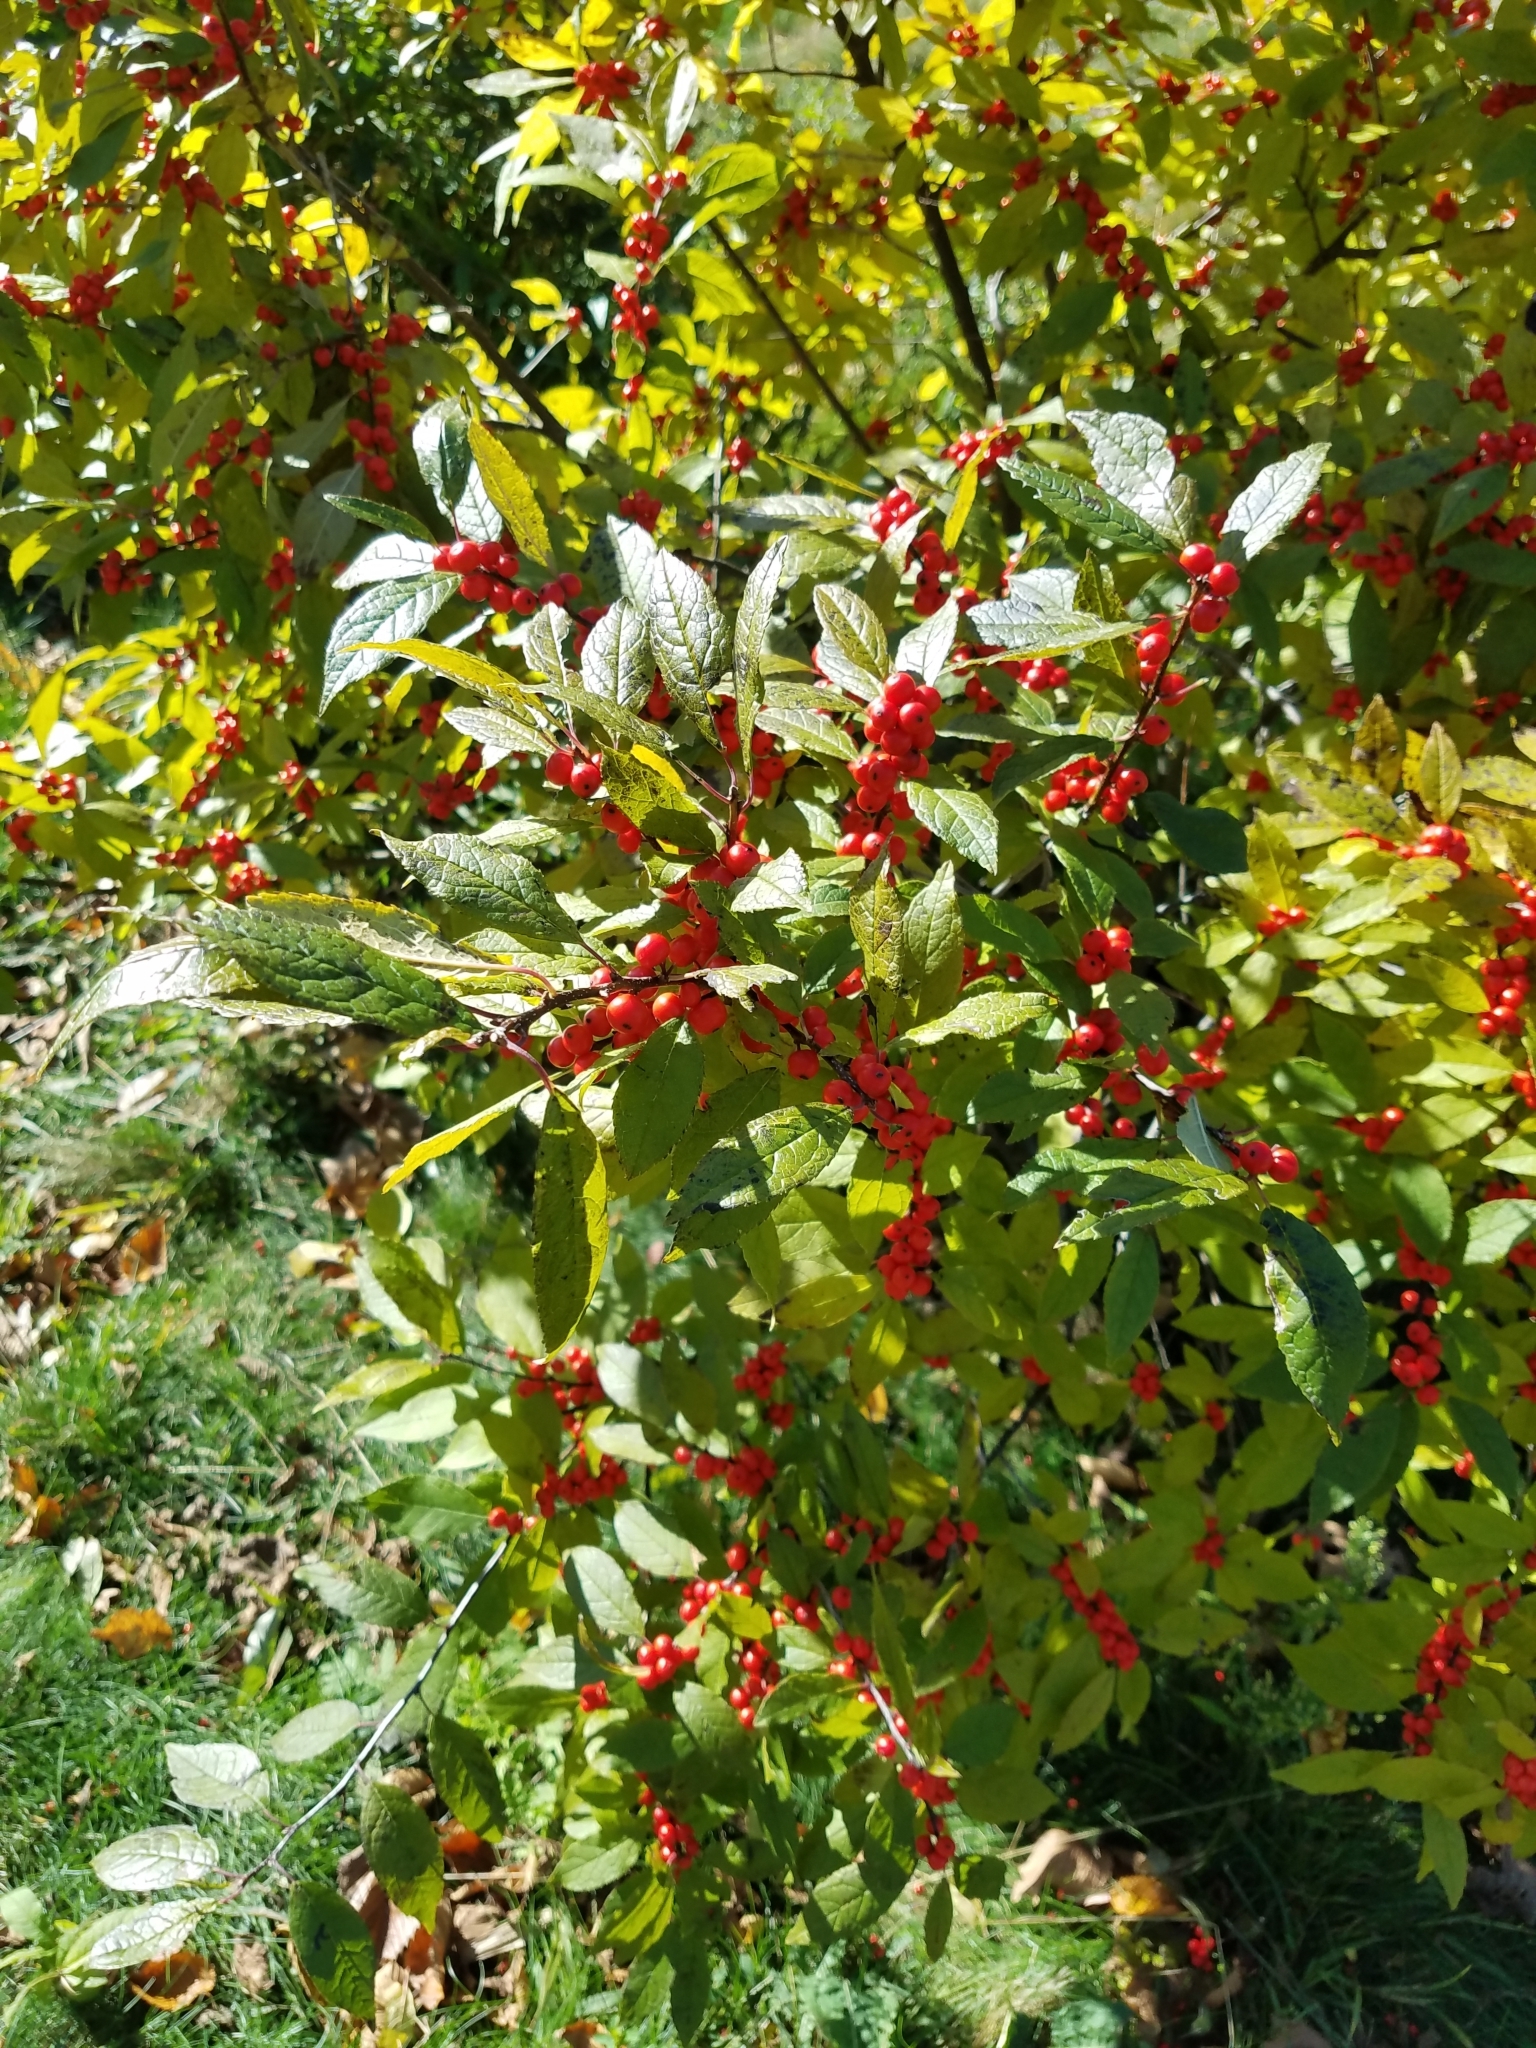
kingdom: Plantae
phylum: Tracheophyta
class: Magnoliopsida
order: Aquifoliales
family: Aquifoliaceae
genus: Ilex
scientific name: Ilex verticillata
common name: Virginia winterberry
